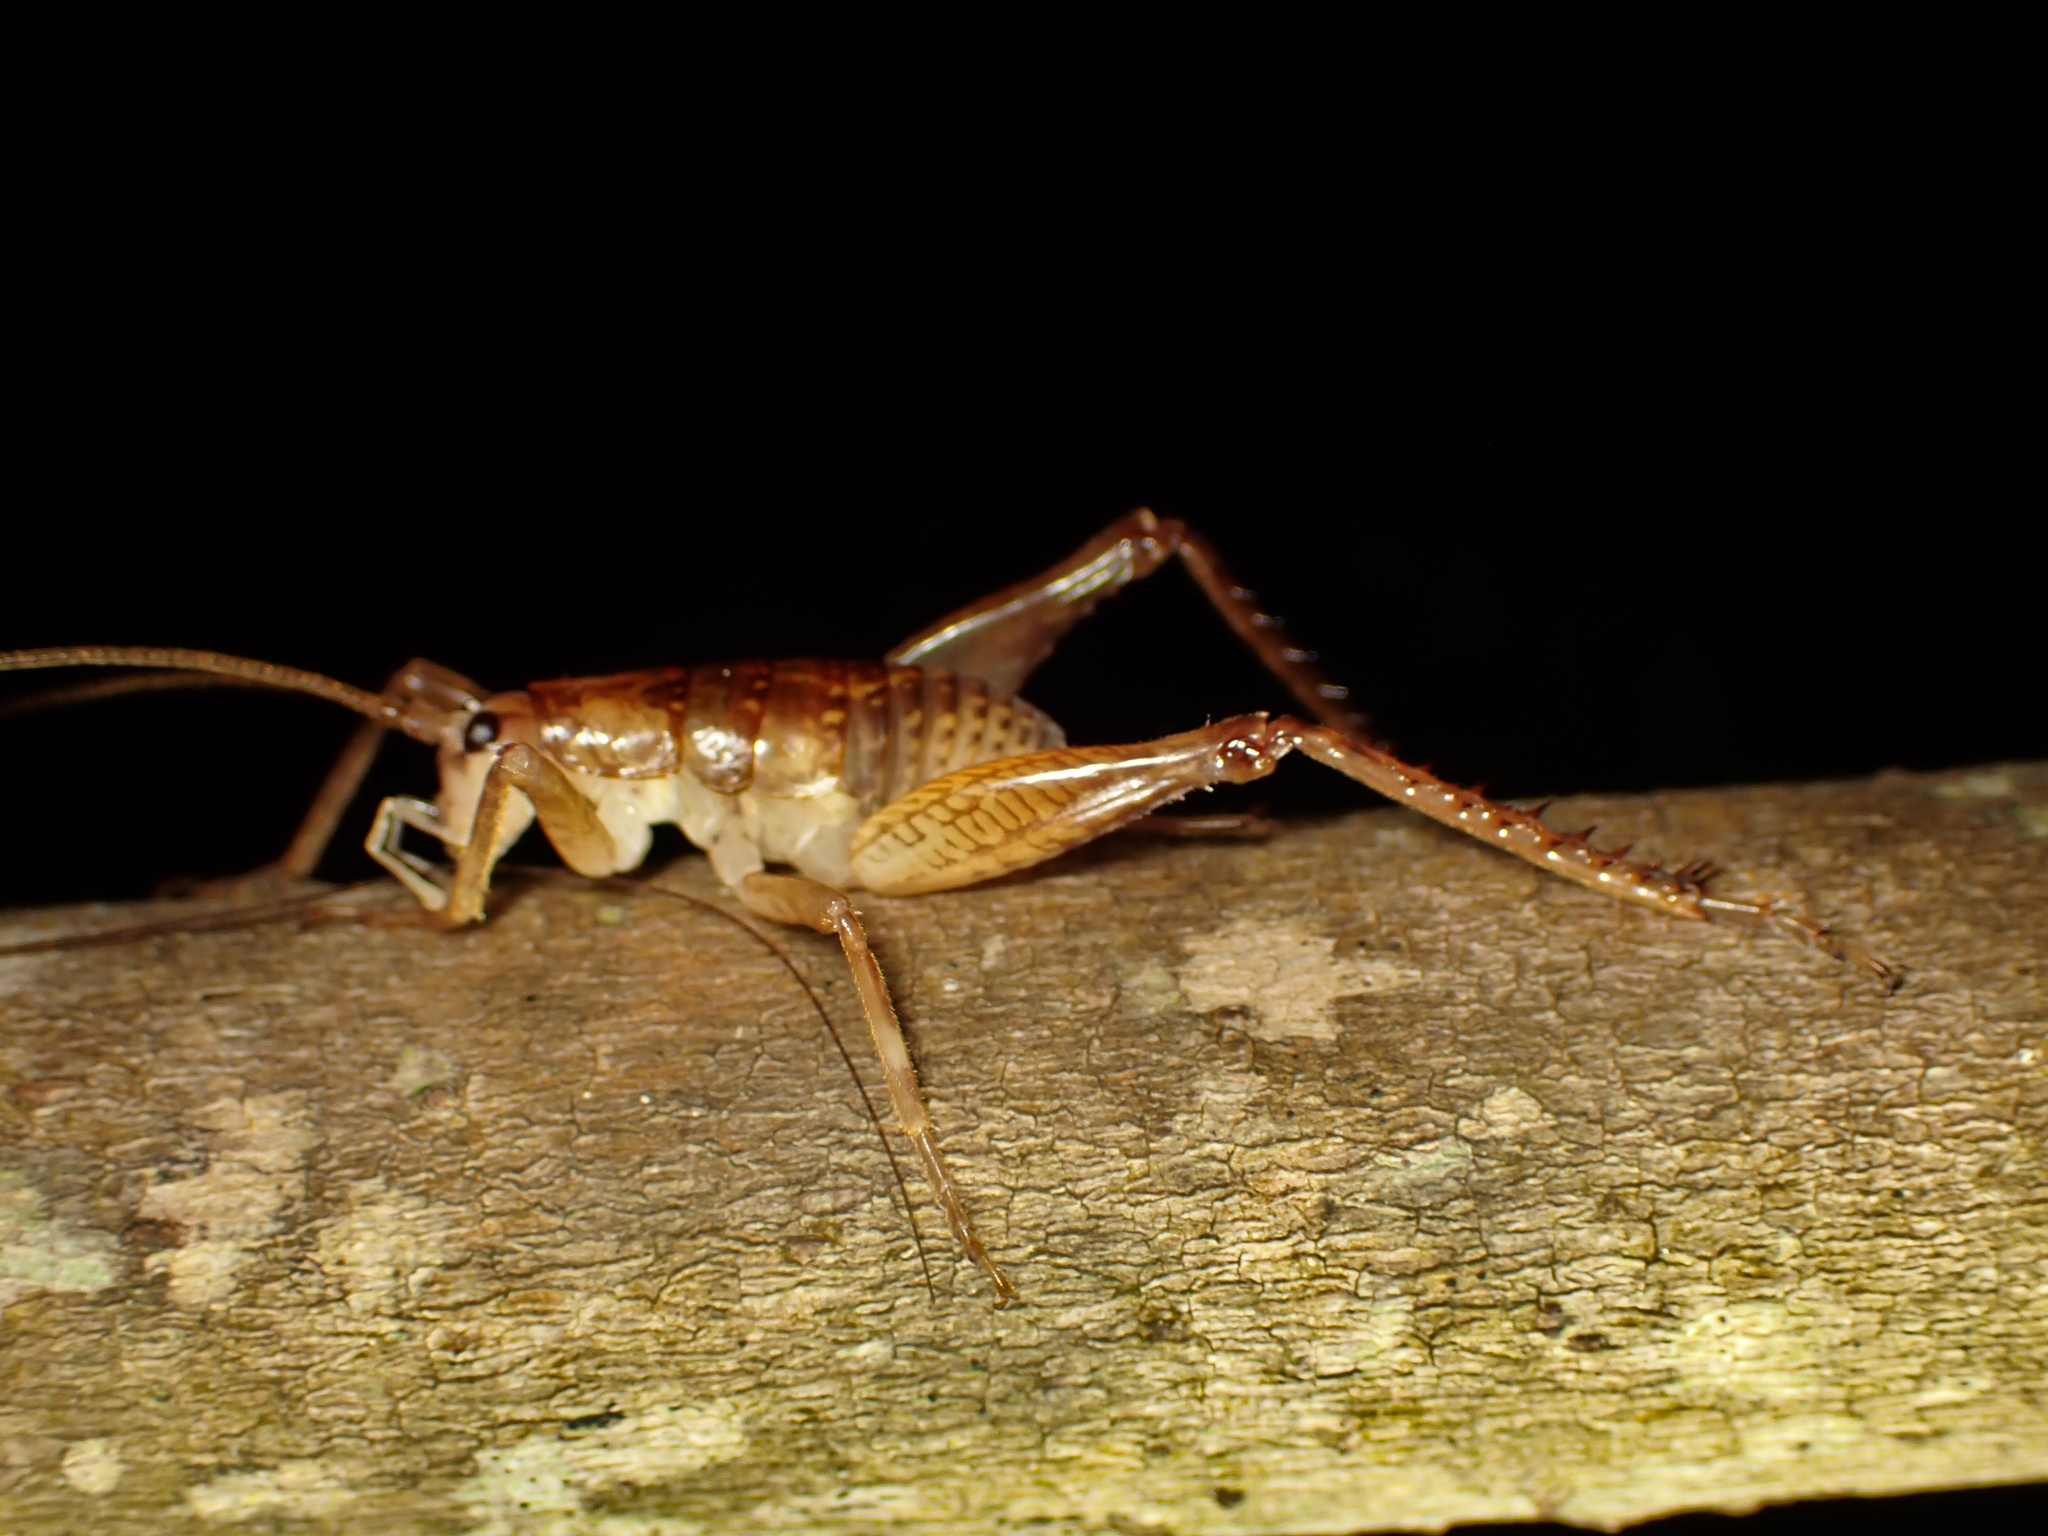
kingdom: Animalia
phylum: Arthropoda
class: Insecta
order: Orthoptera
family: Rhaphidophoridae
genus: Talitropsis
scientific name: Talitropsis sedilloti
